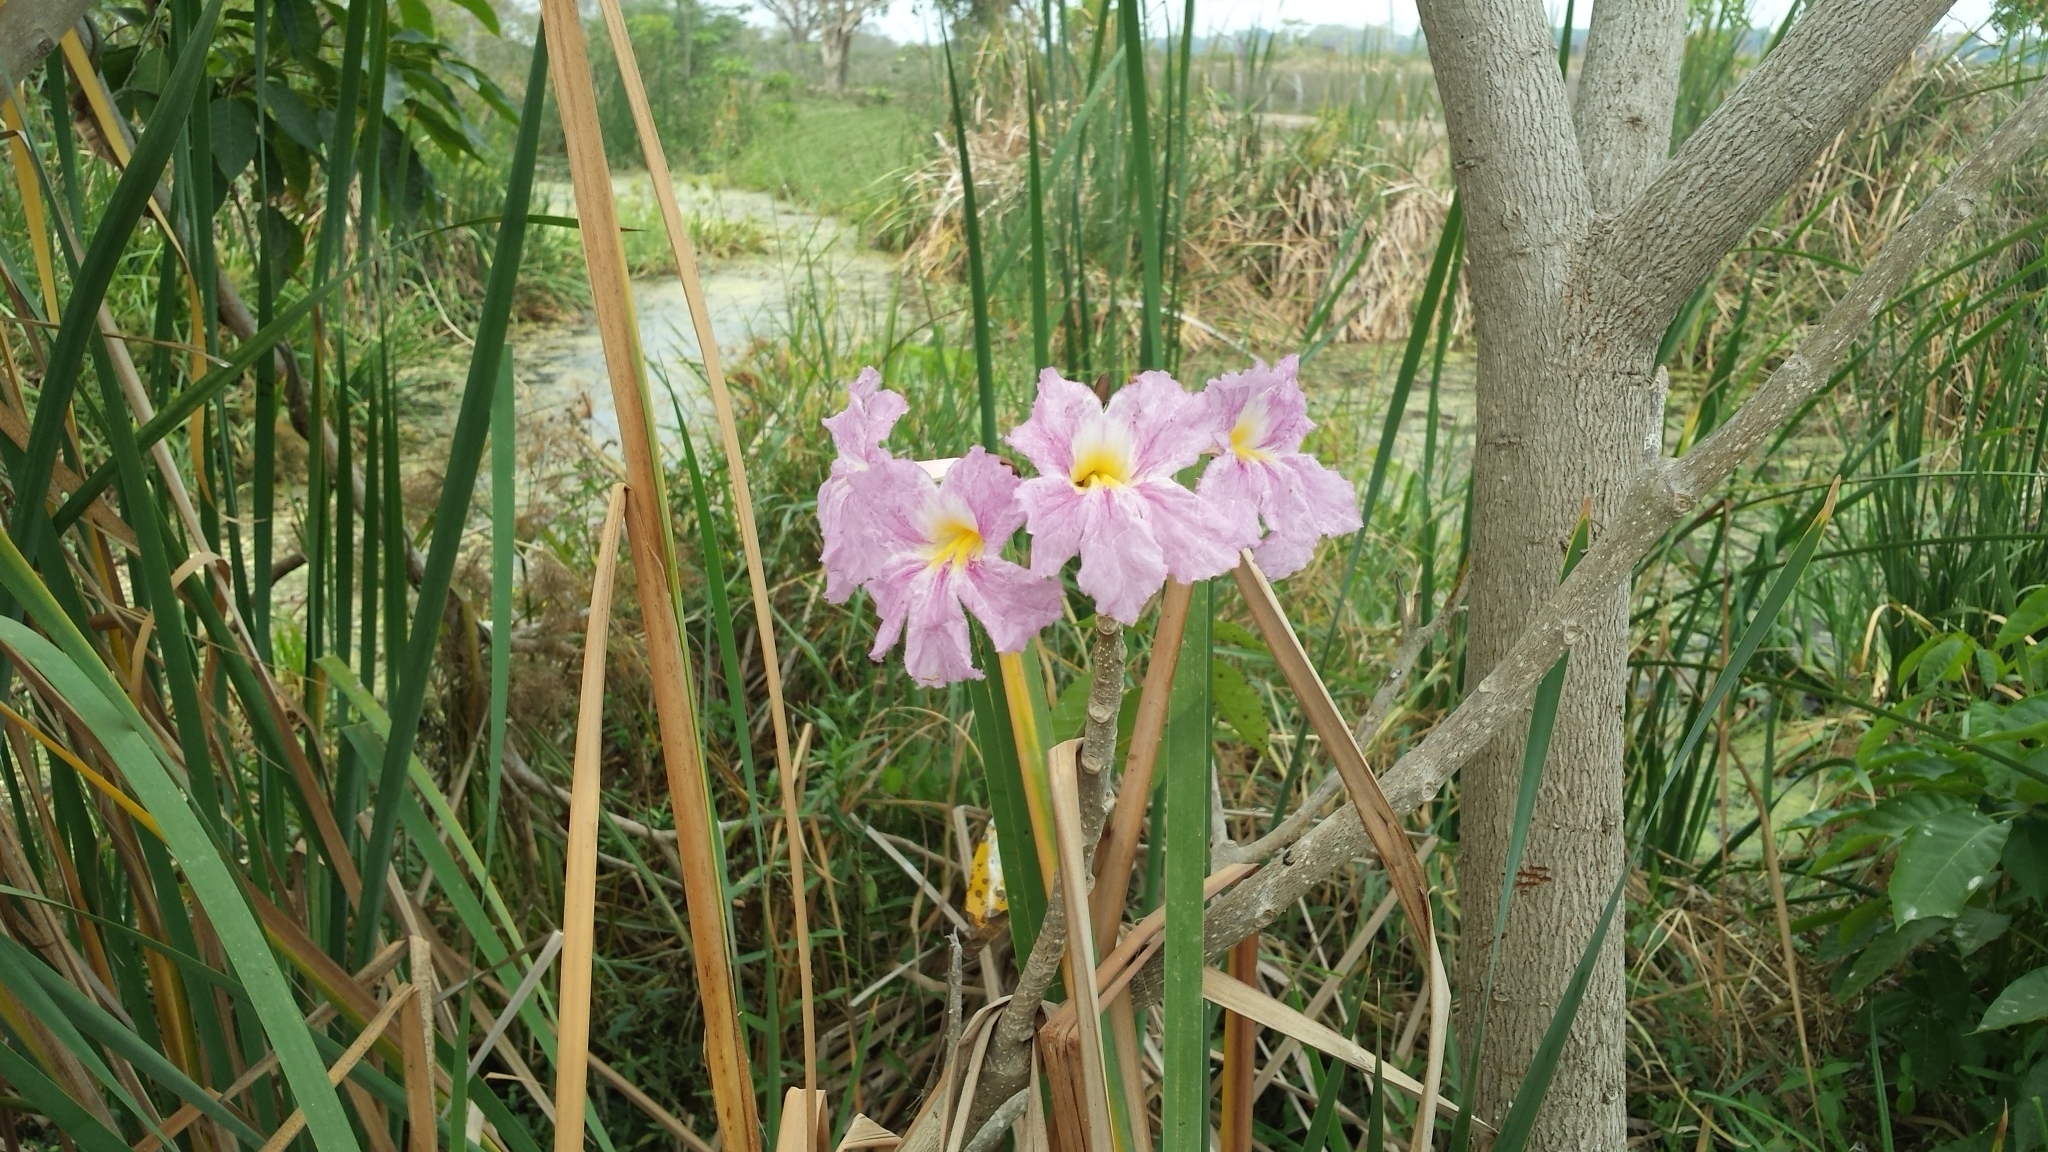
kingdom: Plantae
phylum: Tracheophyta
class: Magnoliopsida
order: Lamiales
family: Bignoniaceae
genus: Tabebuia
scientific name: Tabebuia rosea
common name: Pink poui
